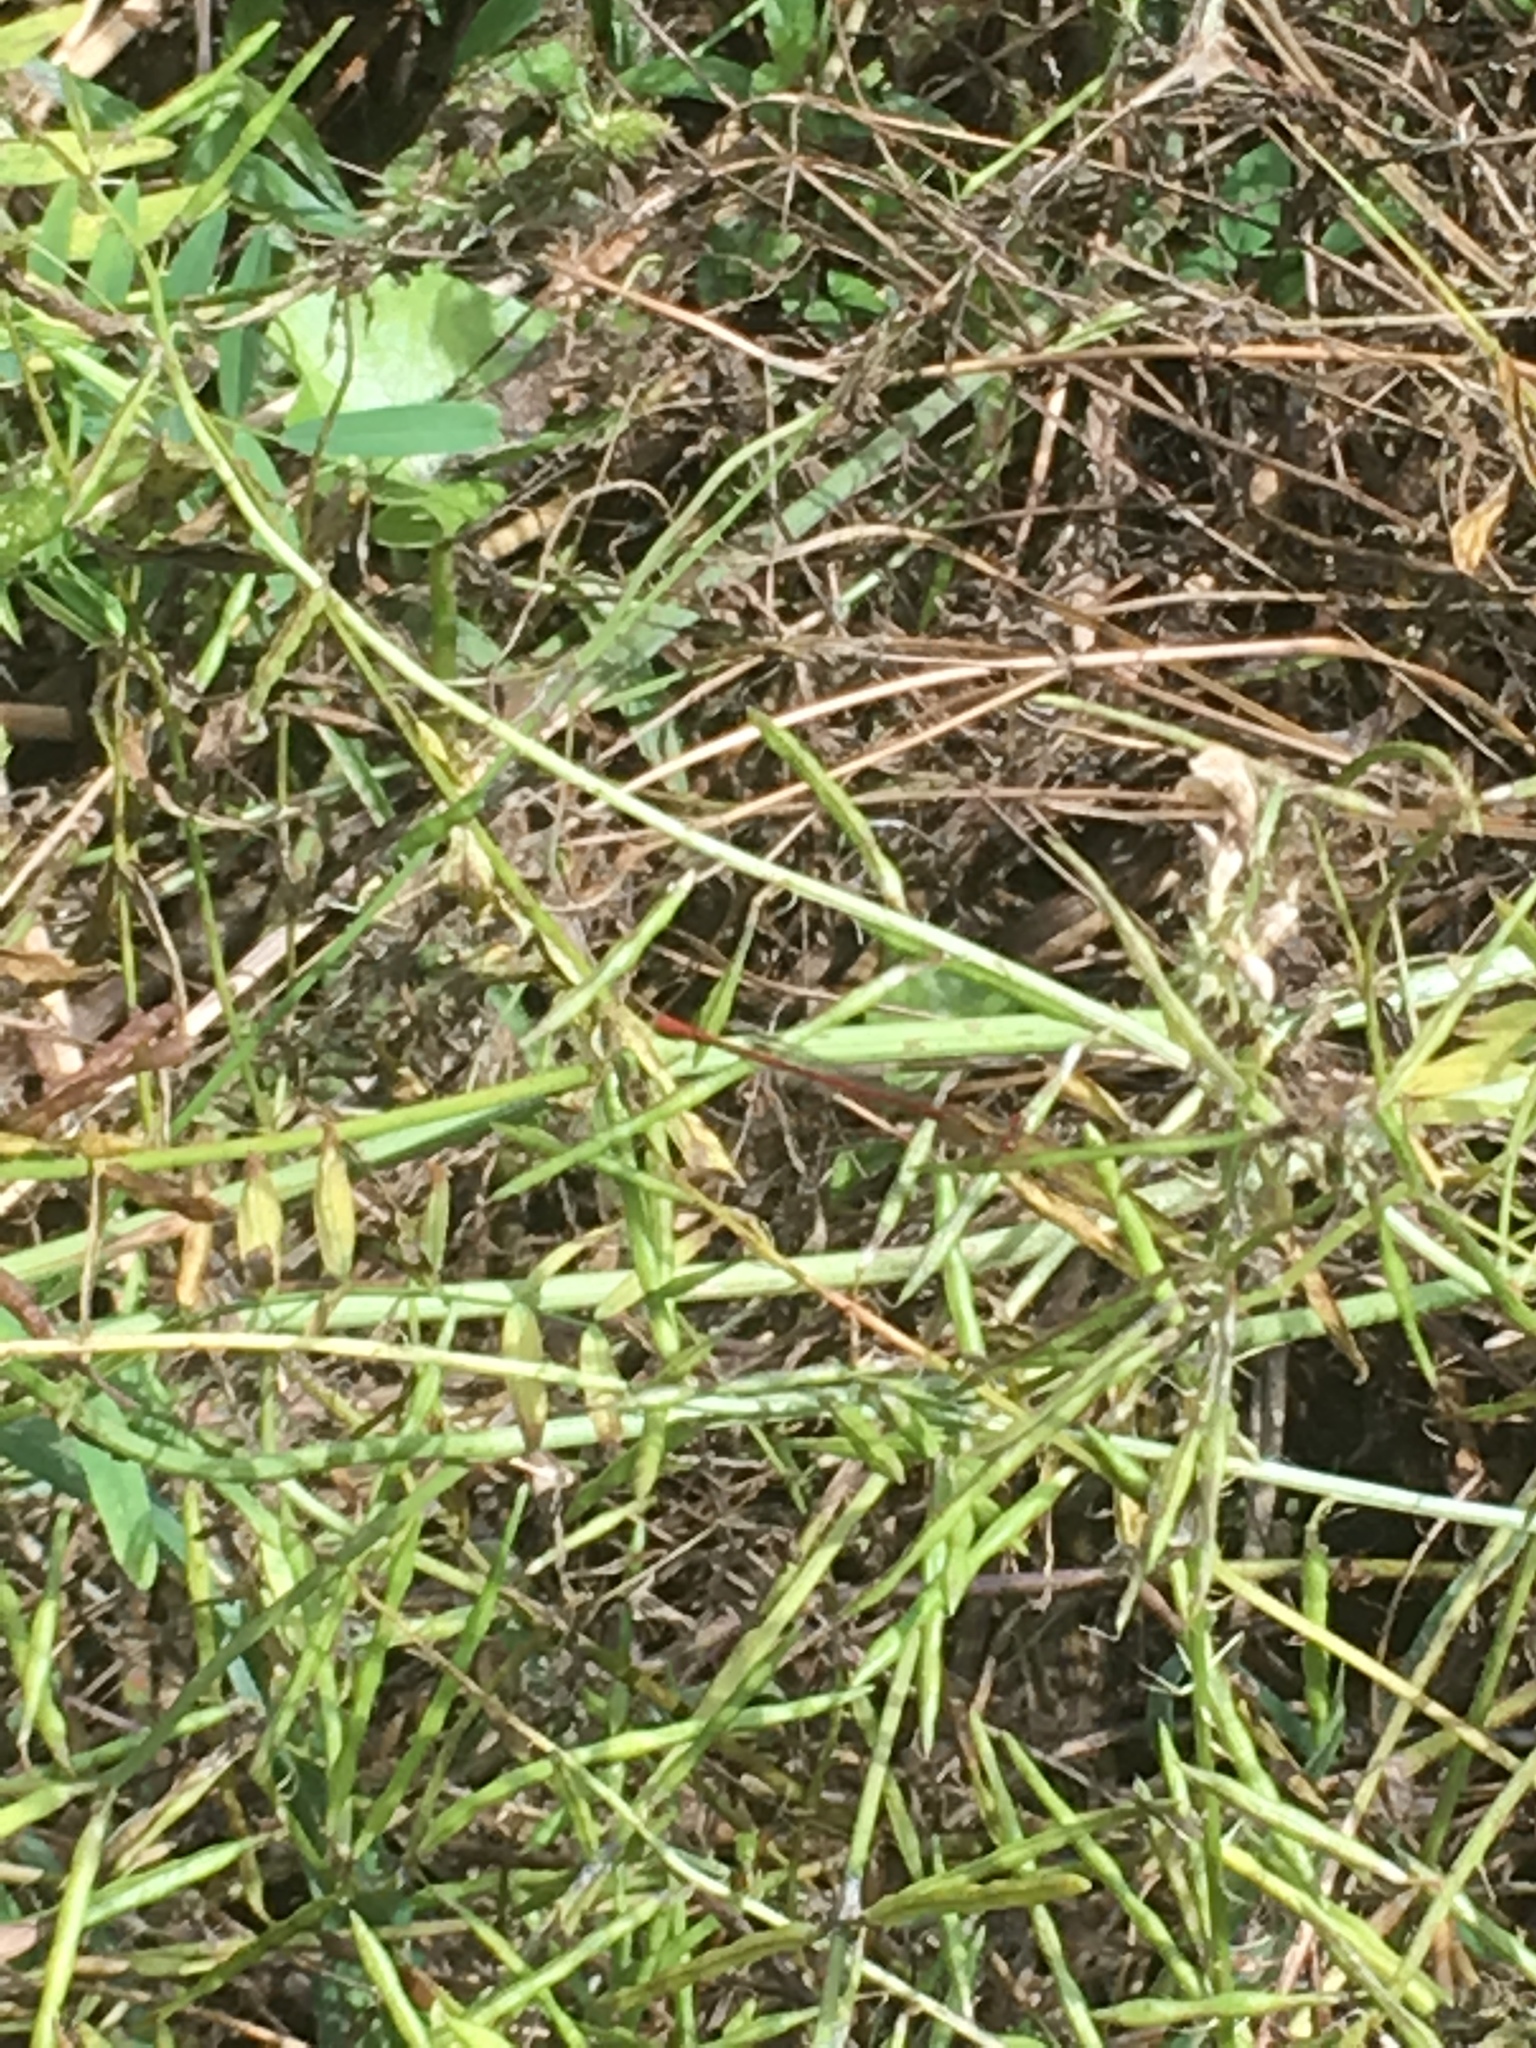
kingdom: Animalia
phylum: Arthropoda
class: Insecta
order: Odonata
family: Coenagrionidae
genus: Xanthocnemis
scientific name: Xanthocnemis zealandica
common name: Common redcoat damselfly
